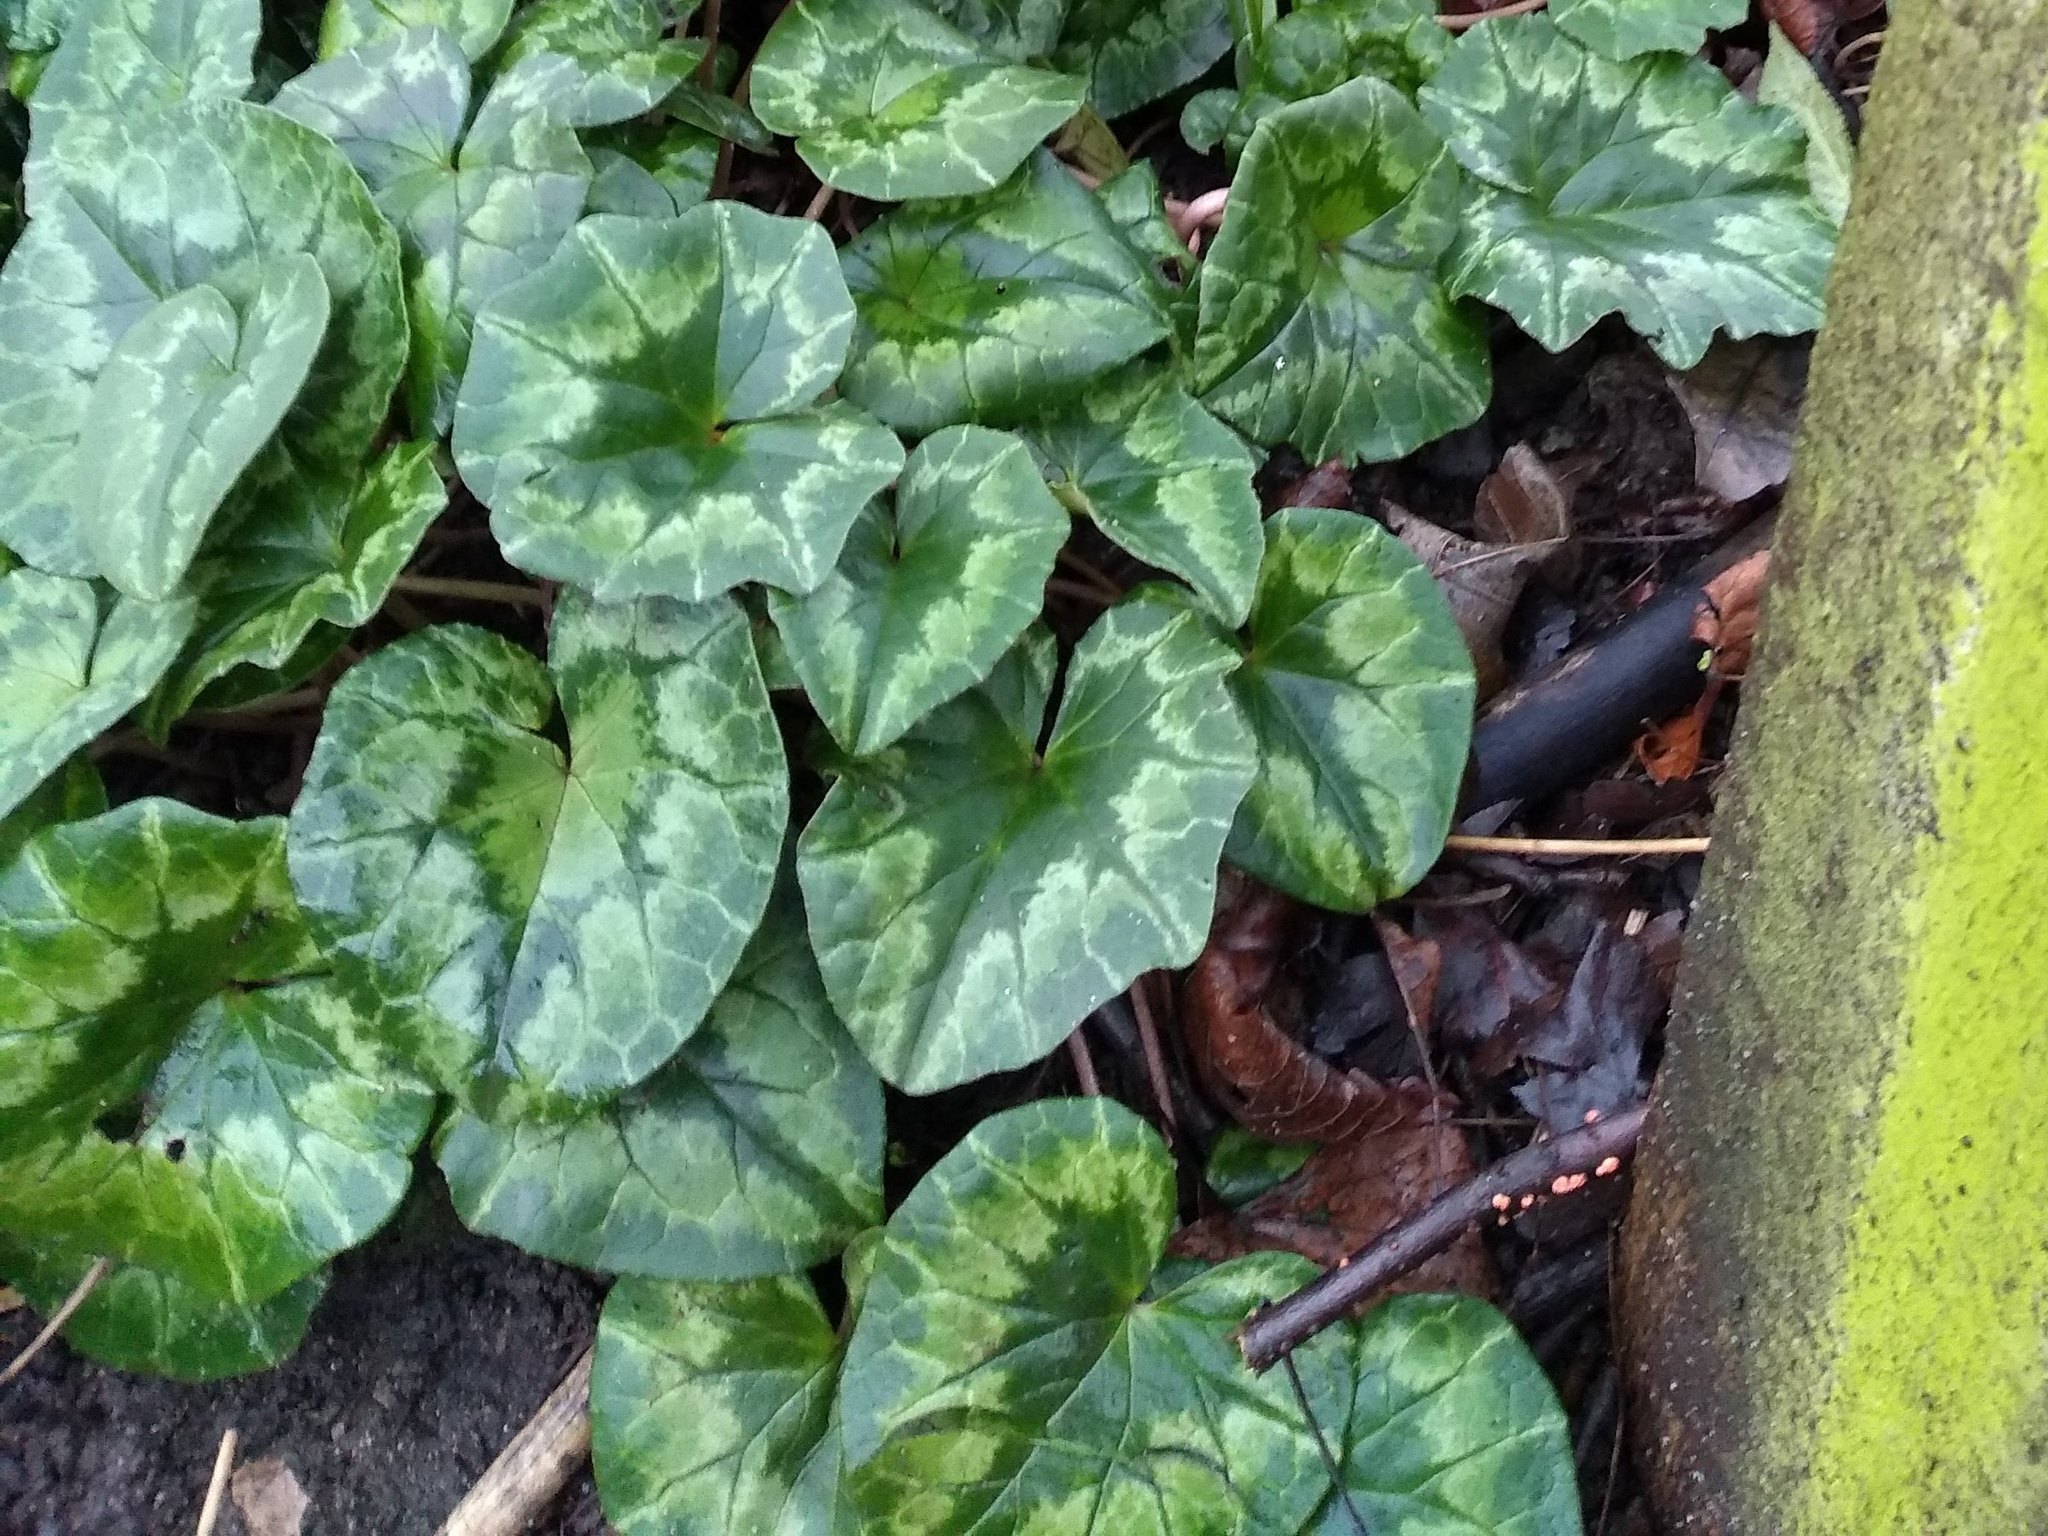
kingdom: Plantae
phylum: Tracheophyta
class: Magnoliopsida
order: Ericales
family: Primulaceae
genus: Cyclamen
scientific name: Cyclamen hederifolium
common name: Sowbread
